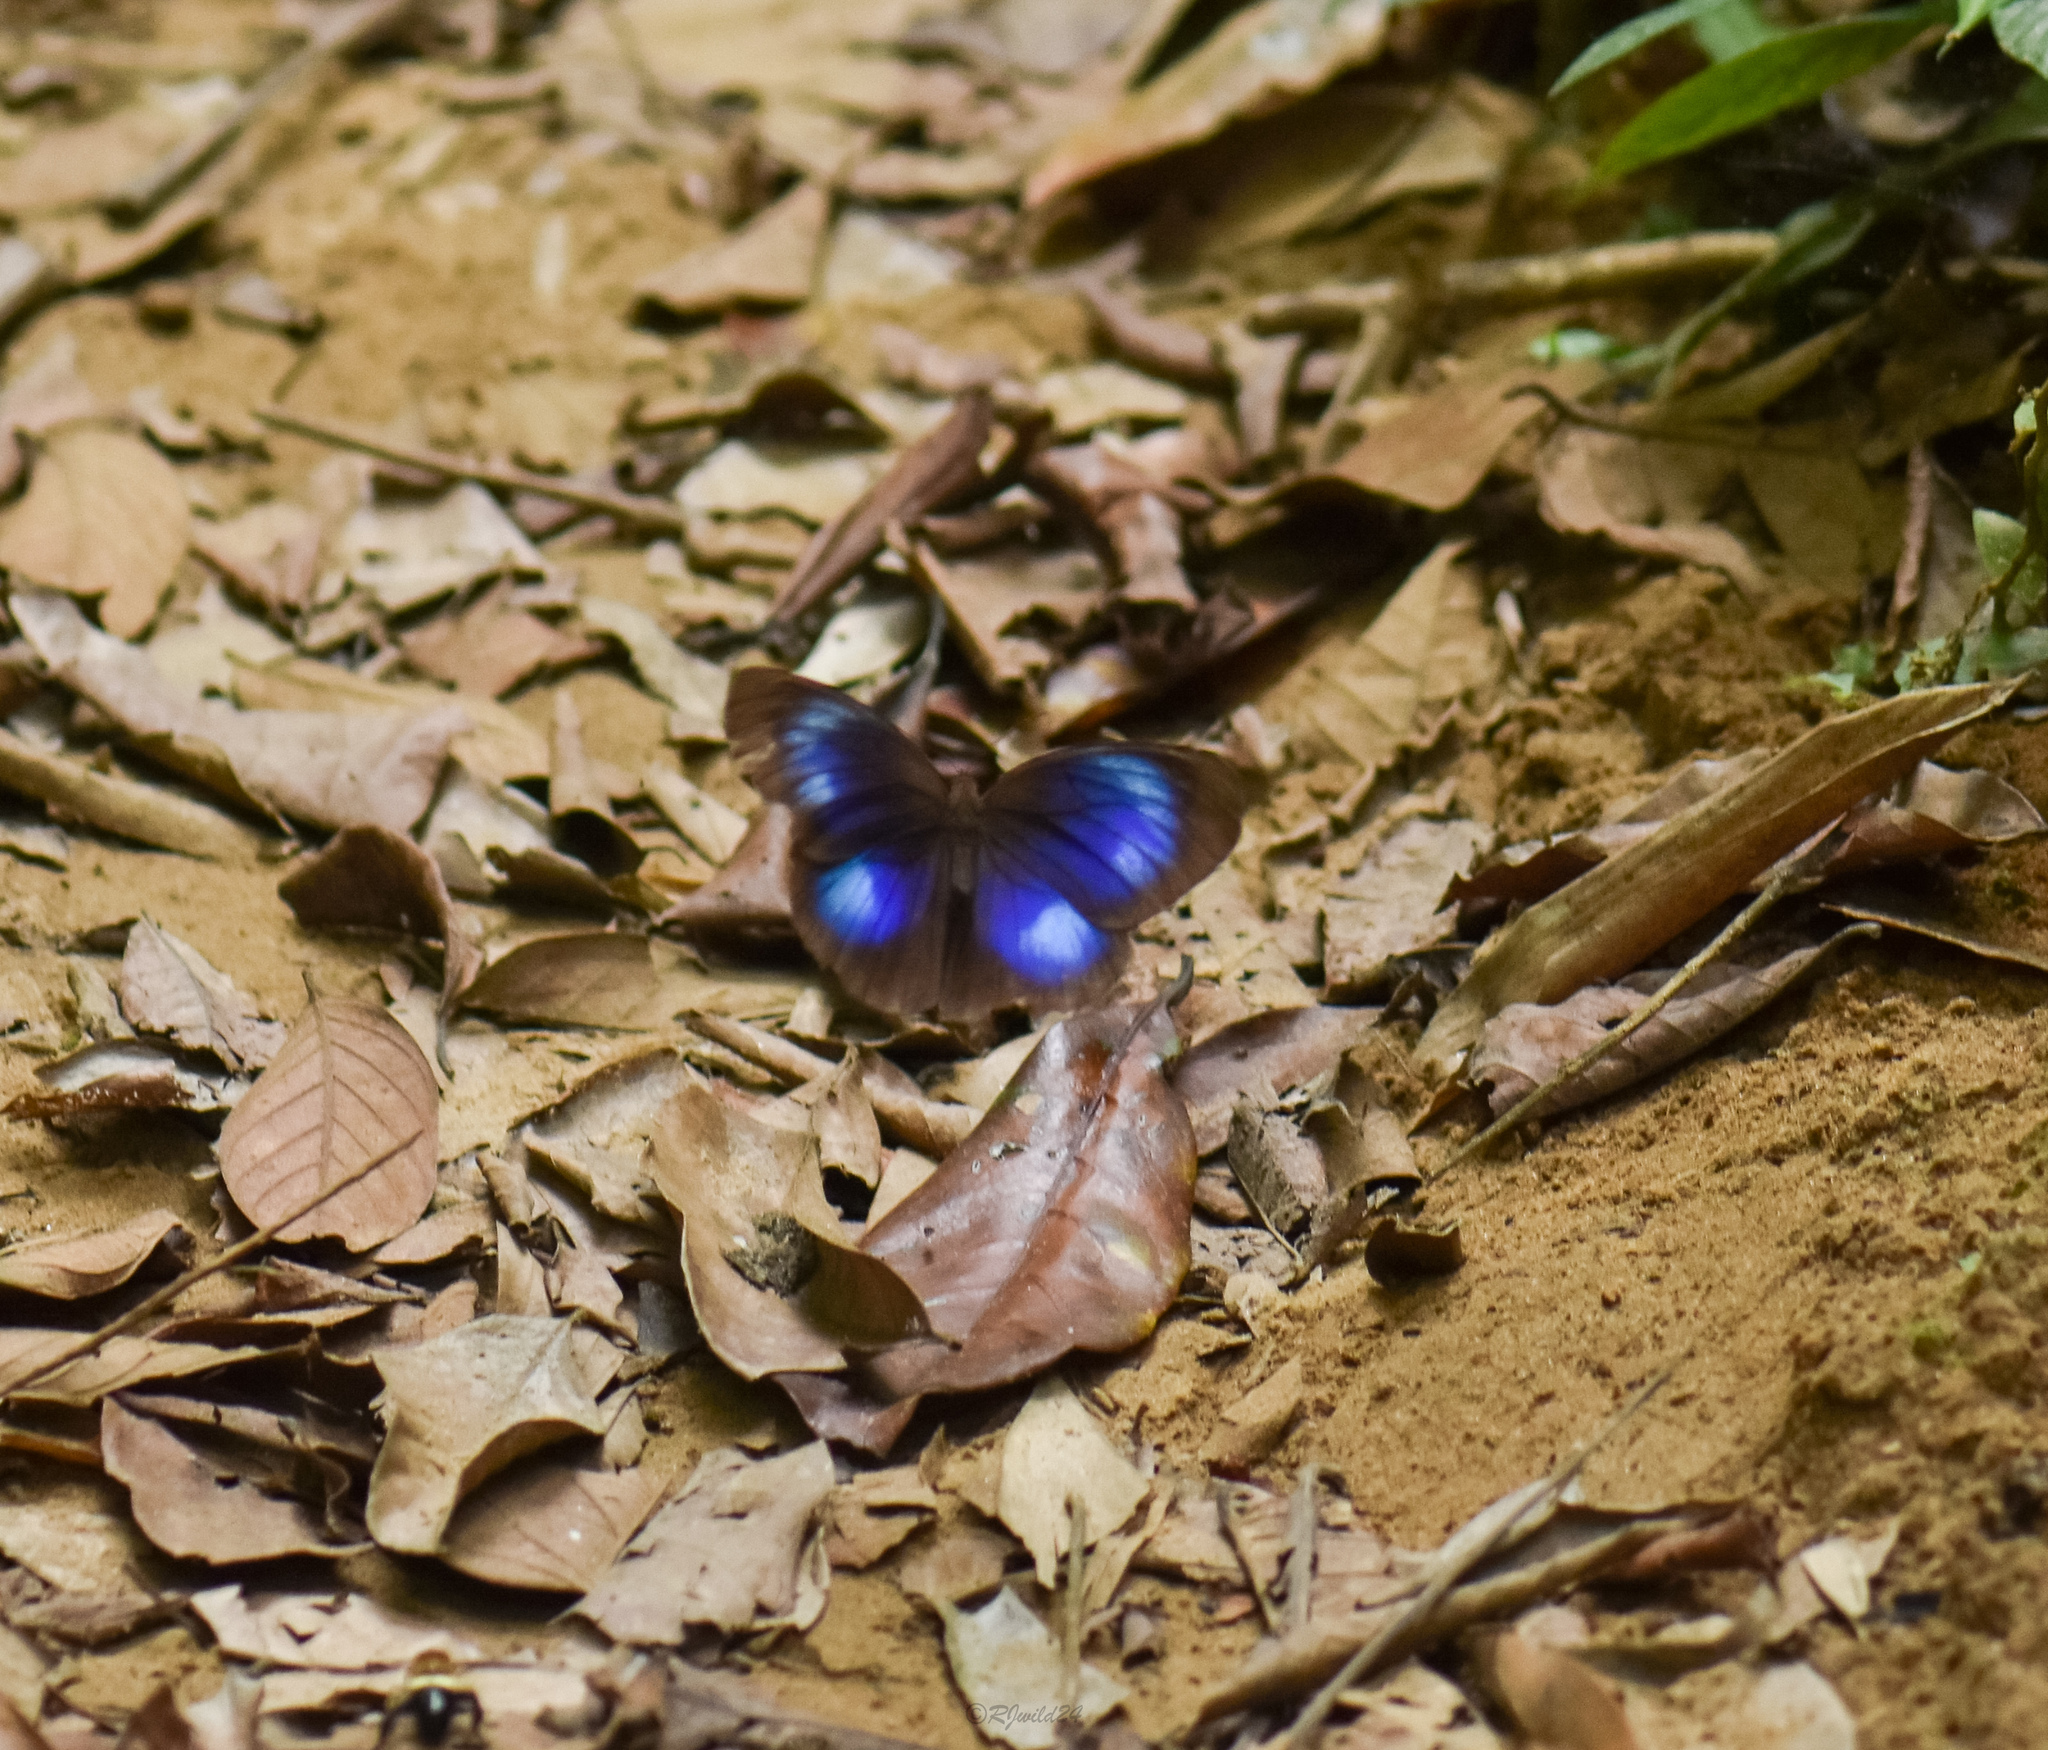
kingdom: Animalia
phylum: Arthropoda
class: Insecta
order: Lepidoptera
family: Nymphalidae
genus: Thaumantis
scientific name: Thaumantis diores
